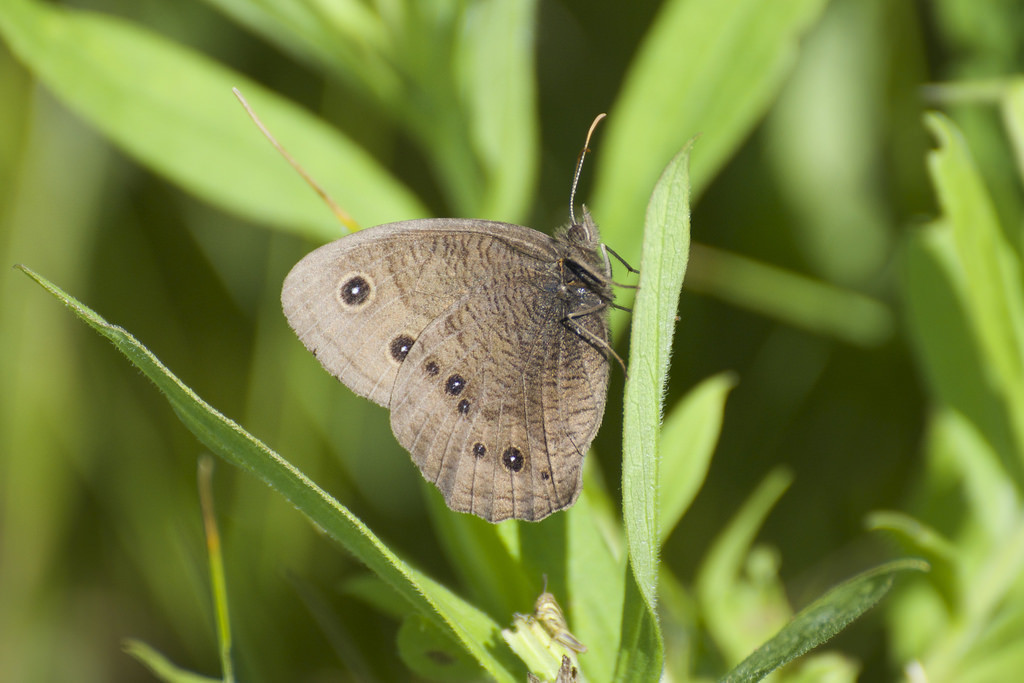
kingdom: Animalia
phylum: Arthropoda
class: Insecta
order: Lepidoptera
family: Nymphalidae
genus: Cercyonis
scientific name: Cercyonis pegala
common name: Common wood-nymph
